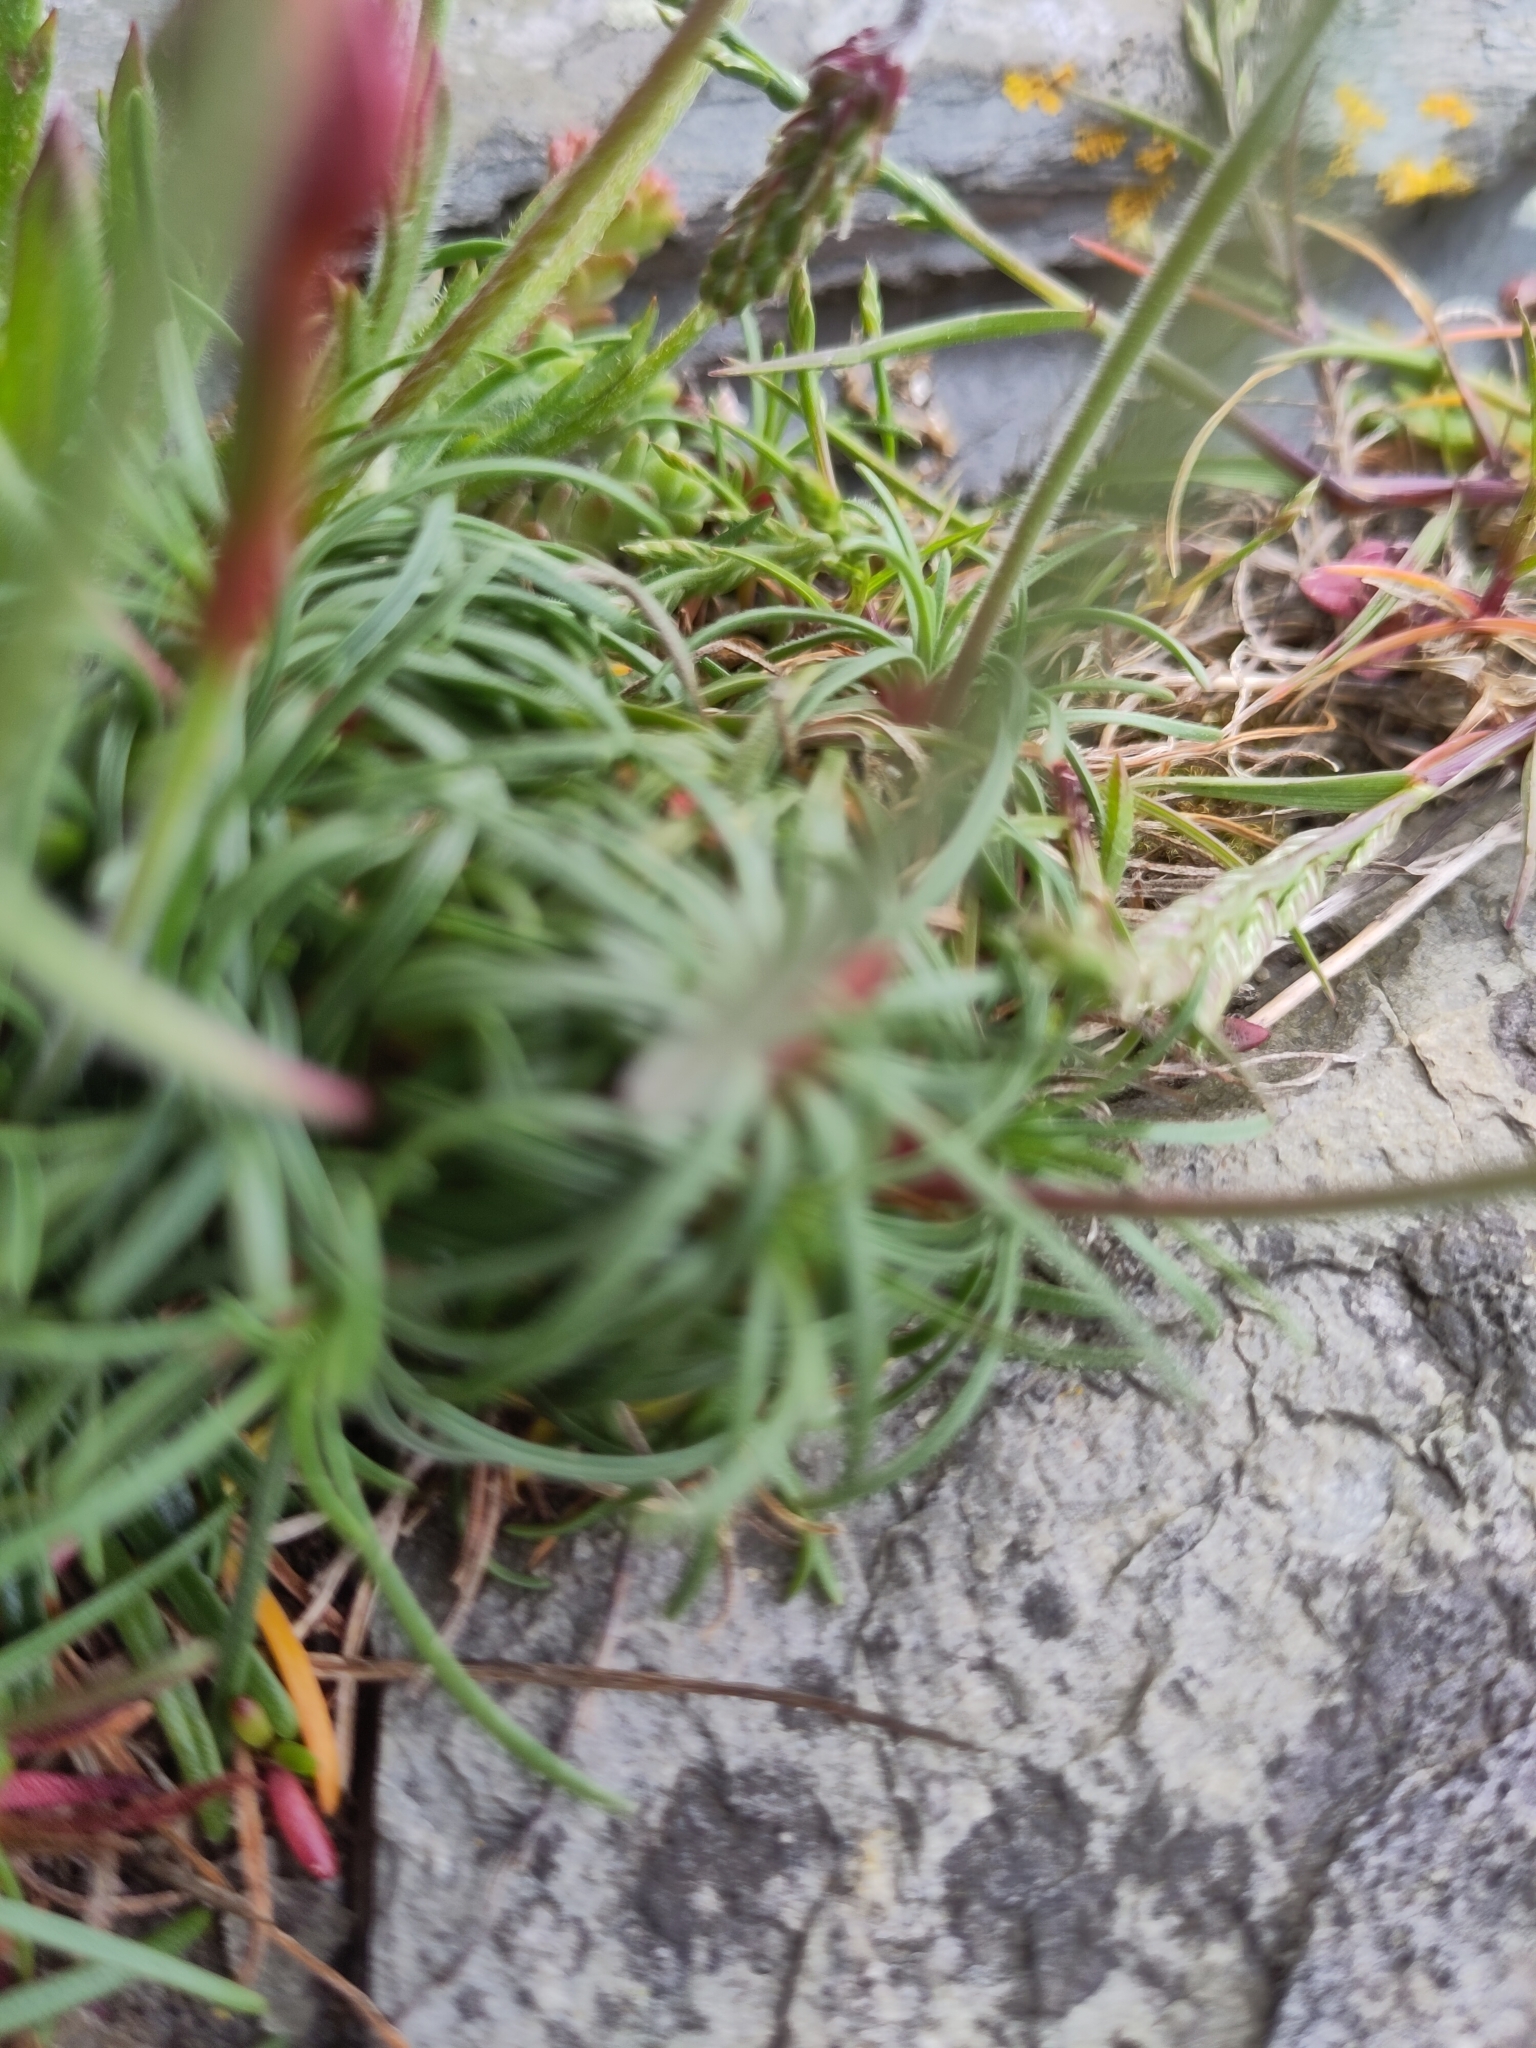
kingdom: Plantae
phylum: Tracheophyta
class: Magnoliopsida
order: Caryophyllales
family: Plumbaginaceae
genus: Armeria
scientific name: Armeria maritima
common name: Thrift
